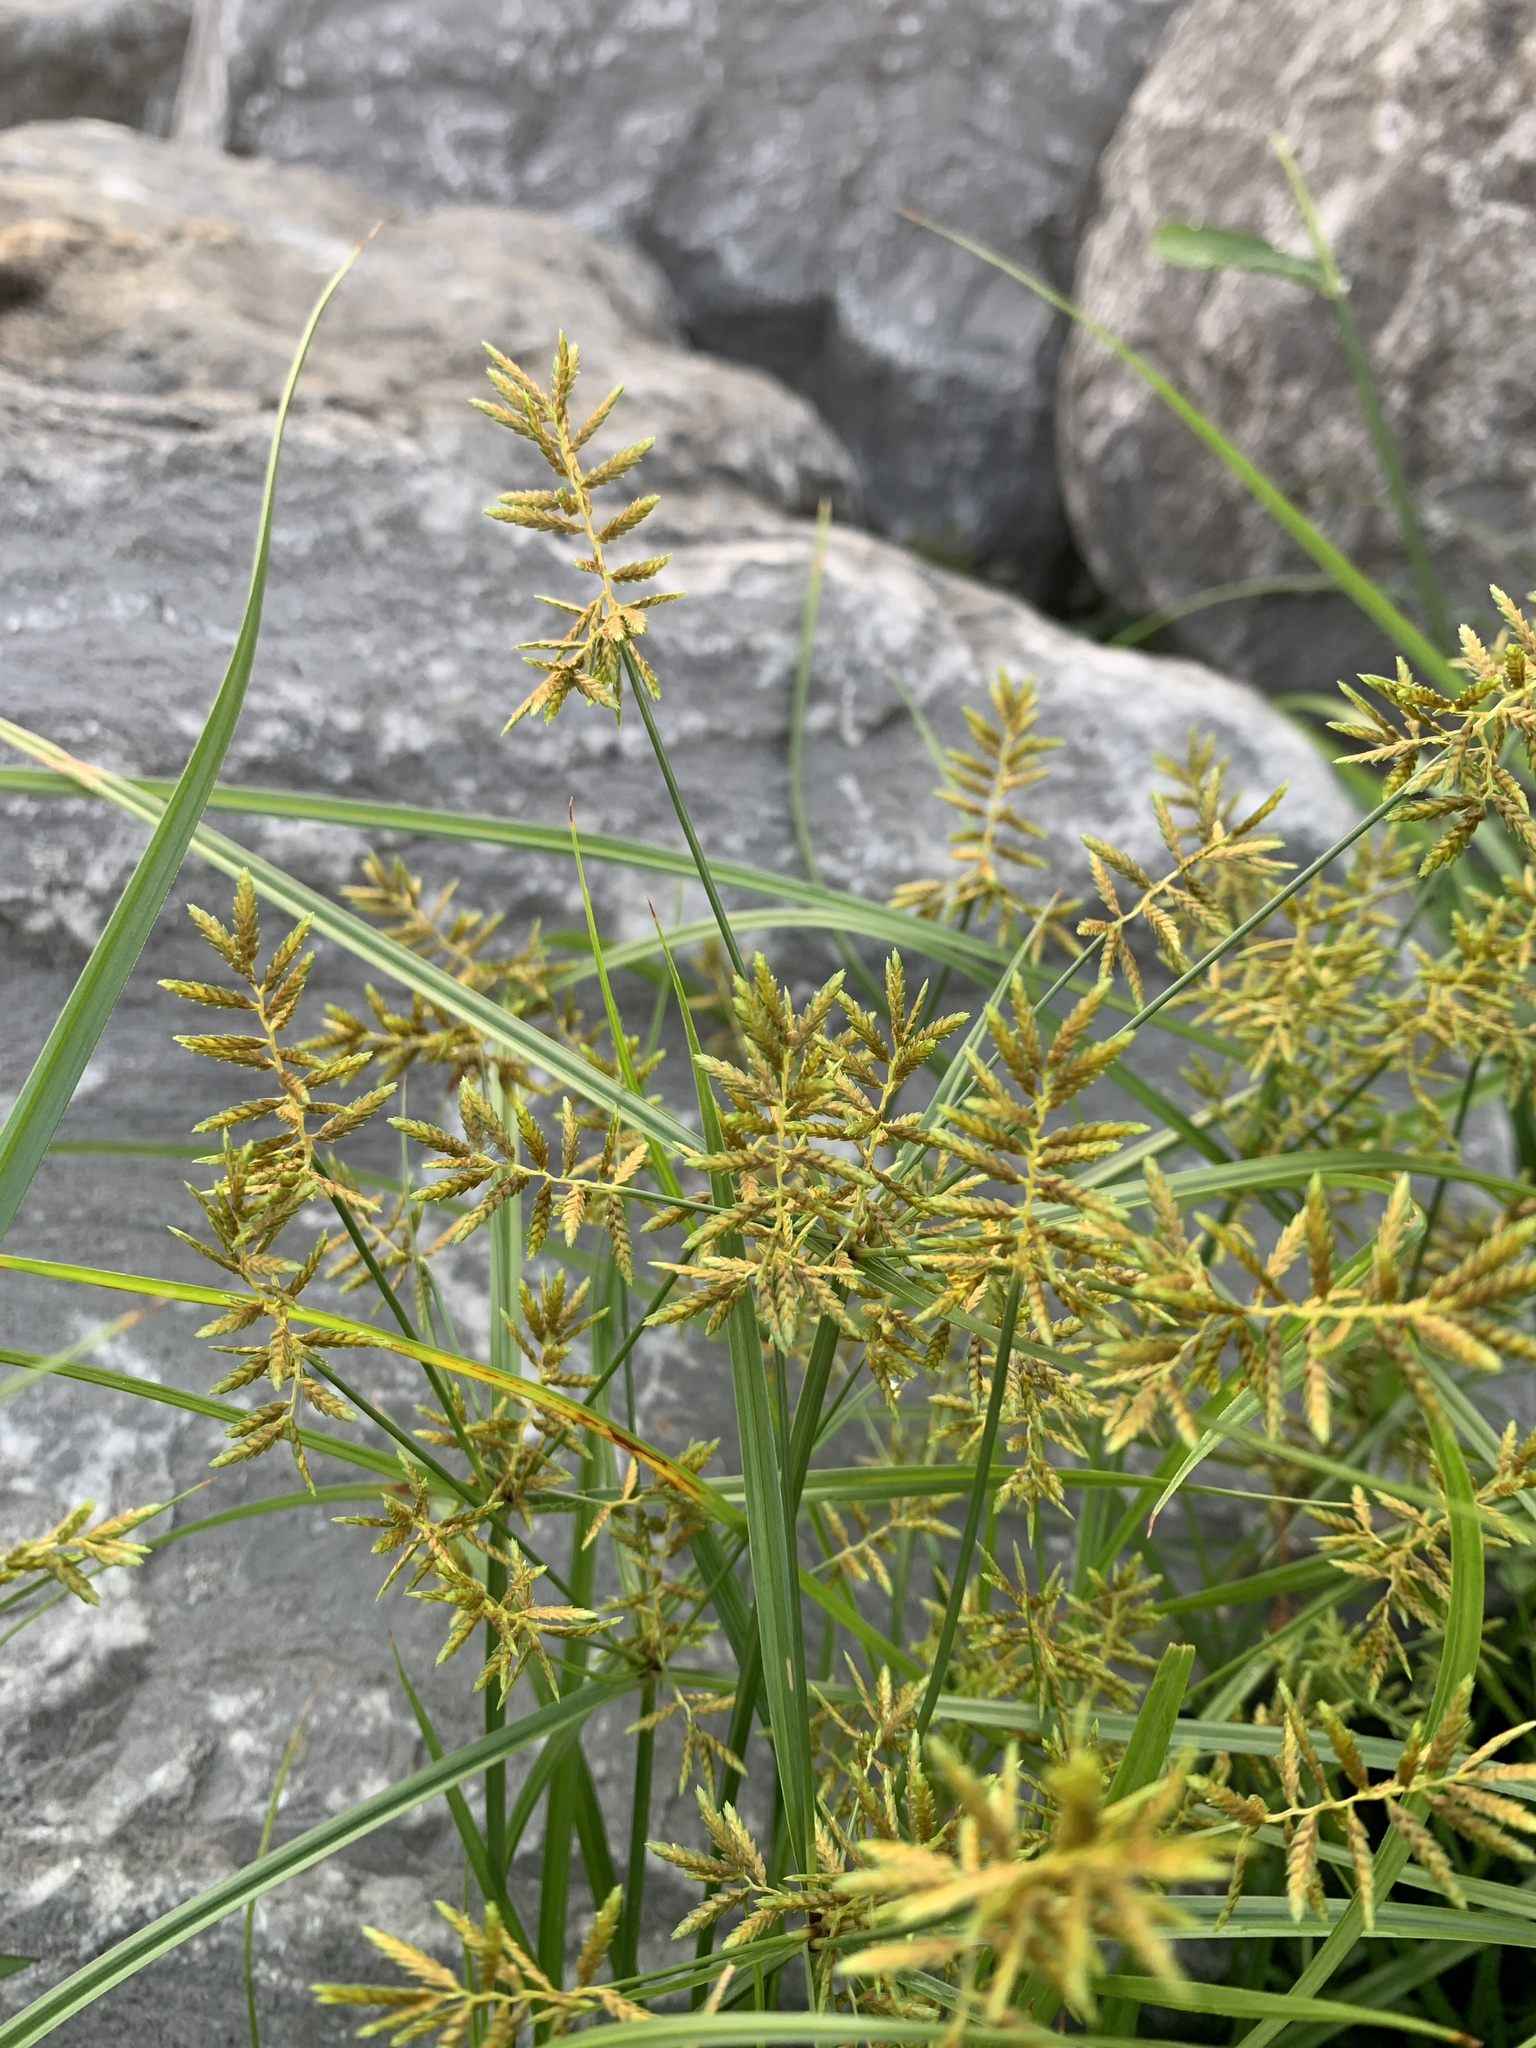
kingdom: Plantae
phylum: Tracheophyta
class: Liliopsida
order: Poales
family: Cyperaceae
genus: Cyperus
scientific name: Cyperus microiria
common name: Asian flatsedge
